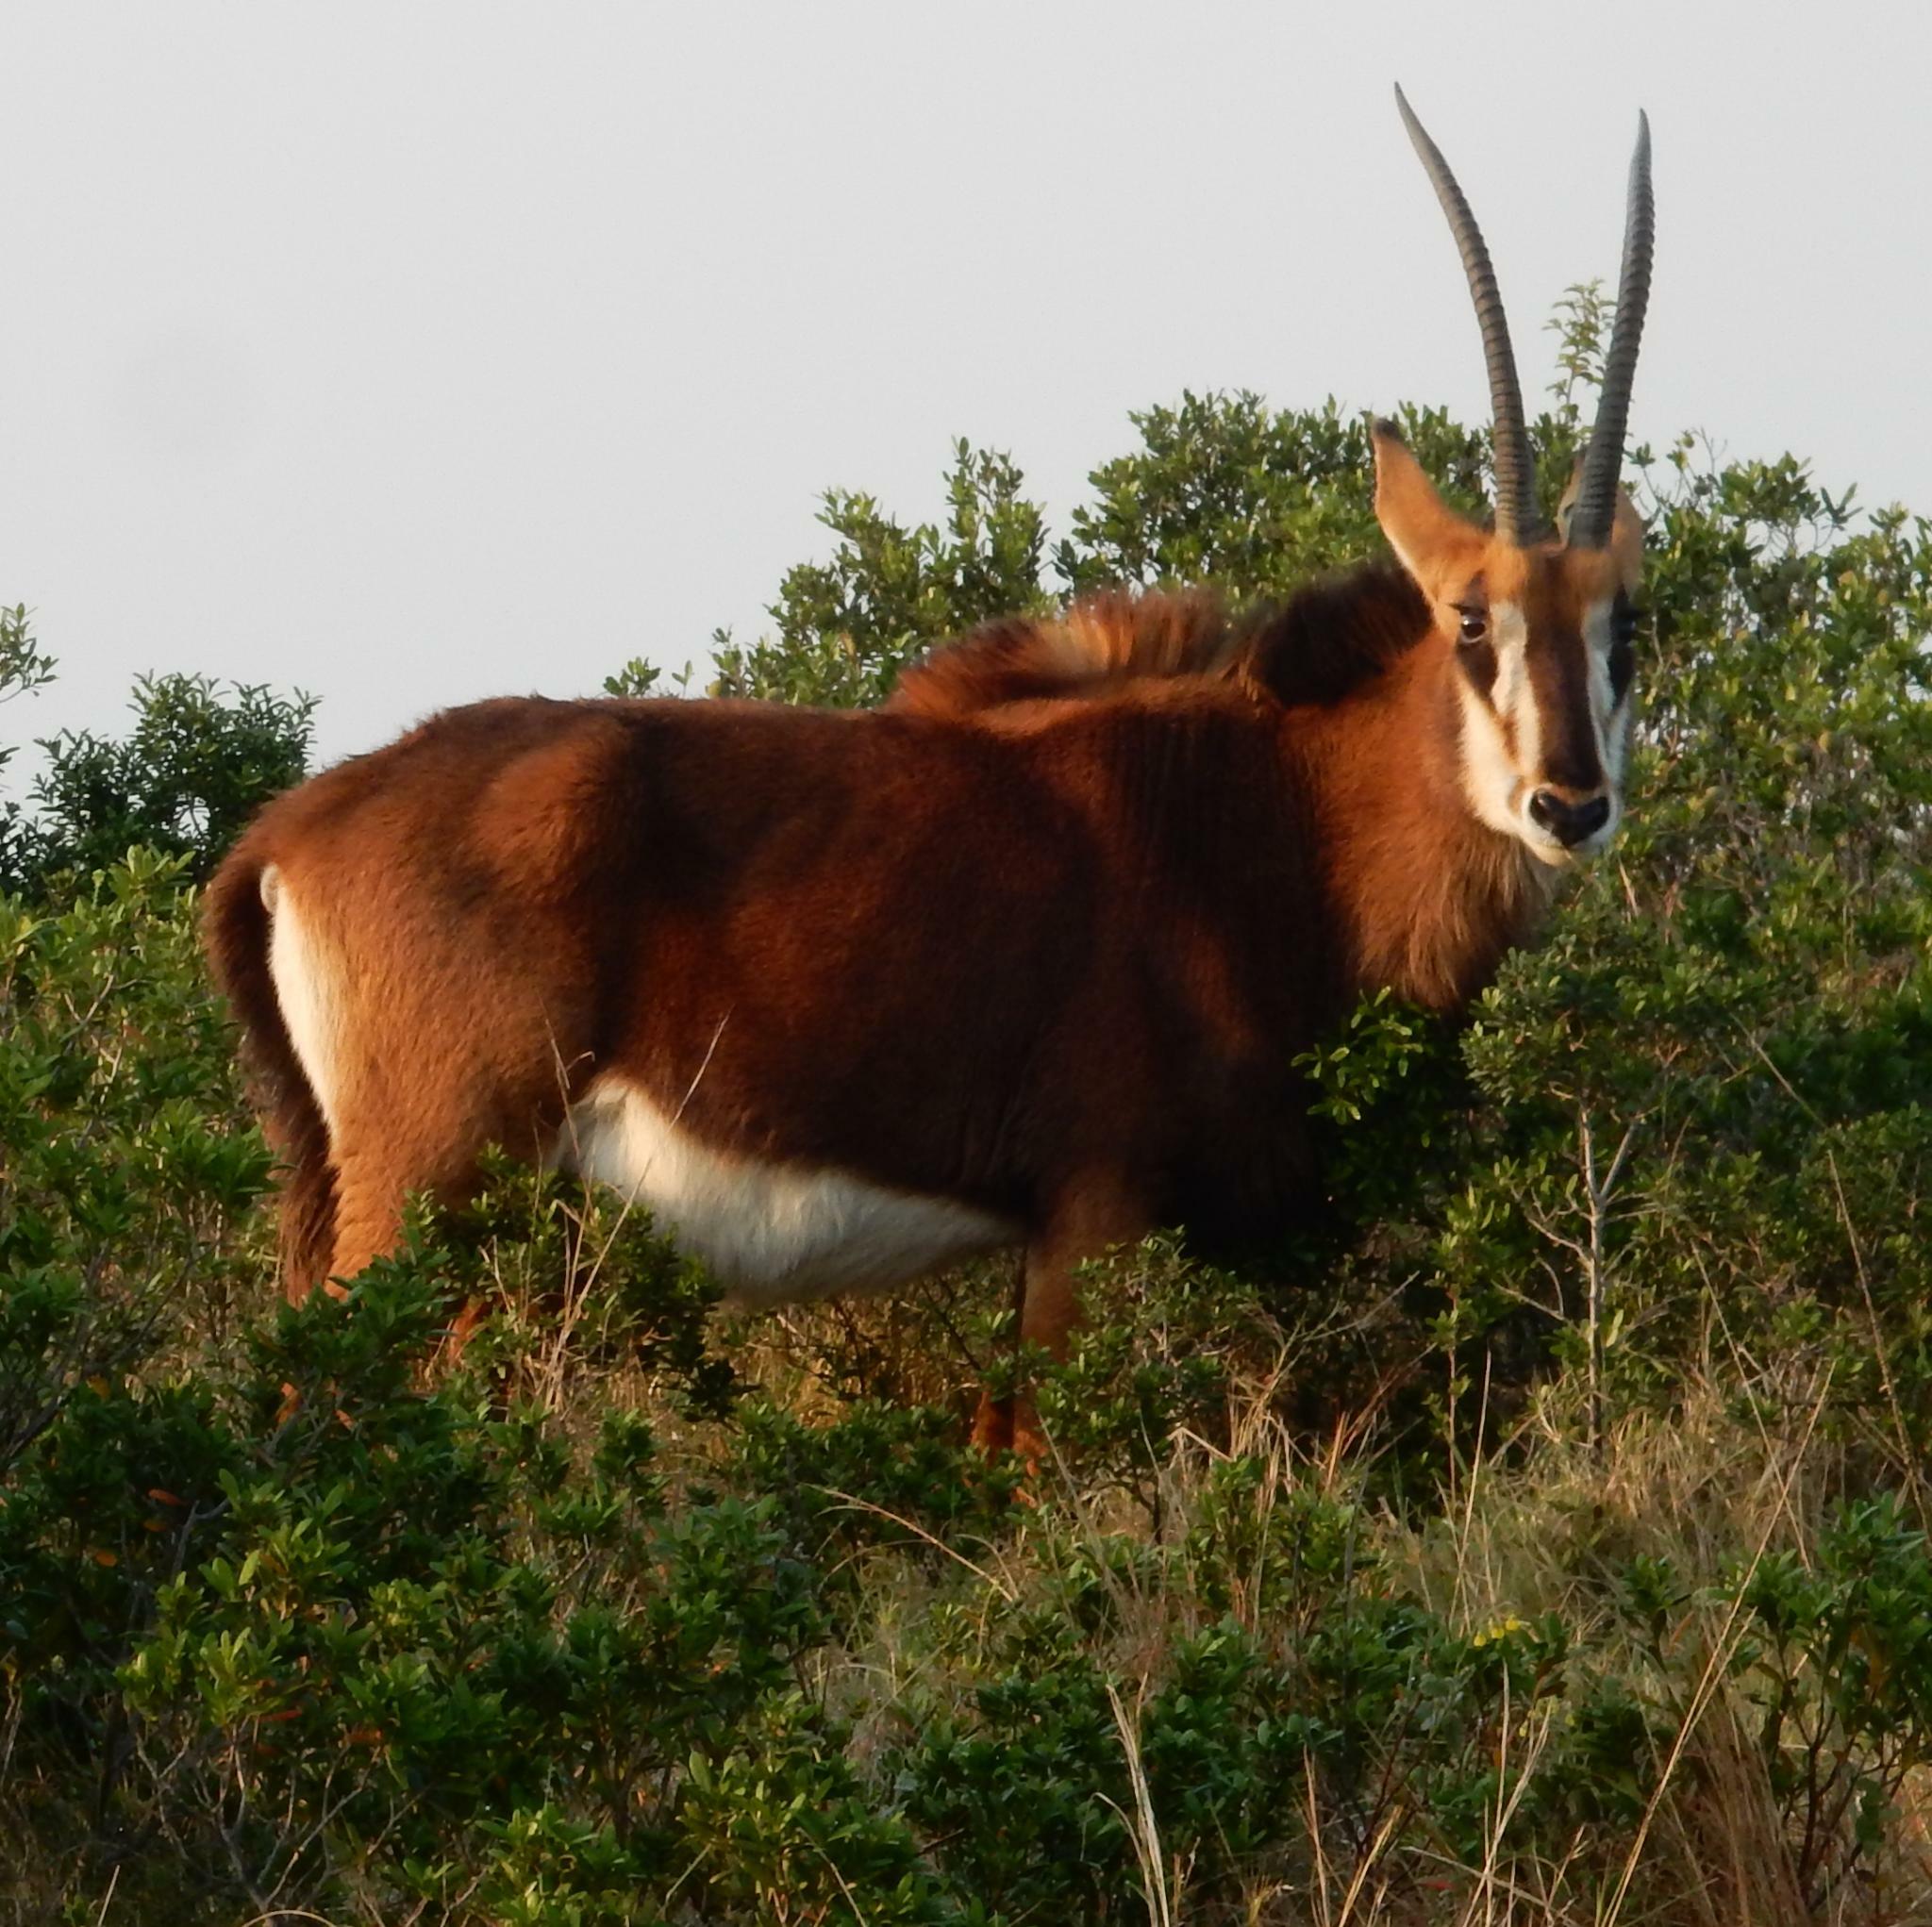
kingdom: Animalia
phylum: Chordata
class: Mammalia
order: Artiodactyla
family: Bovidae
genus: Hippotragus
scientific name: Hippotragus niger
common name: Sable antelope
